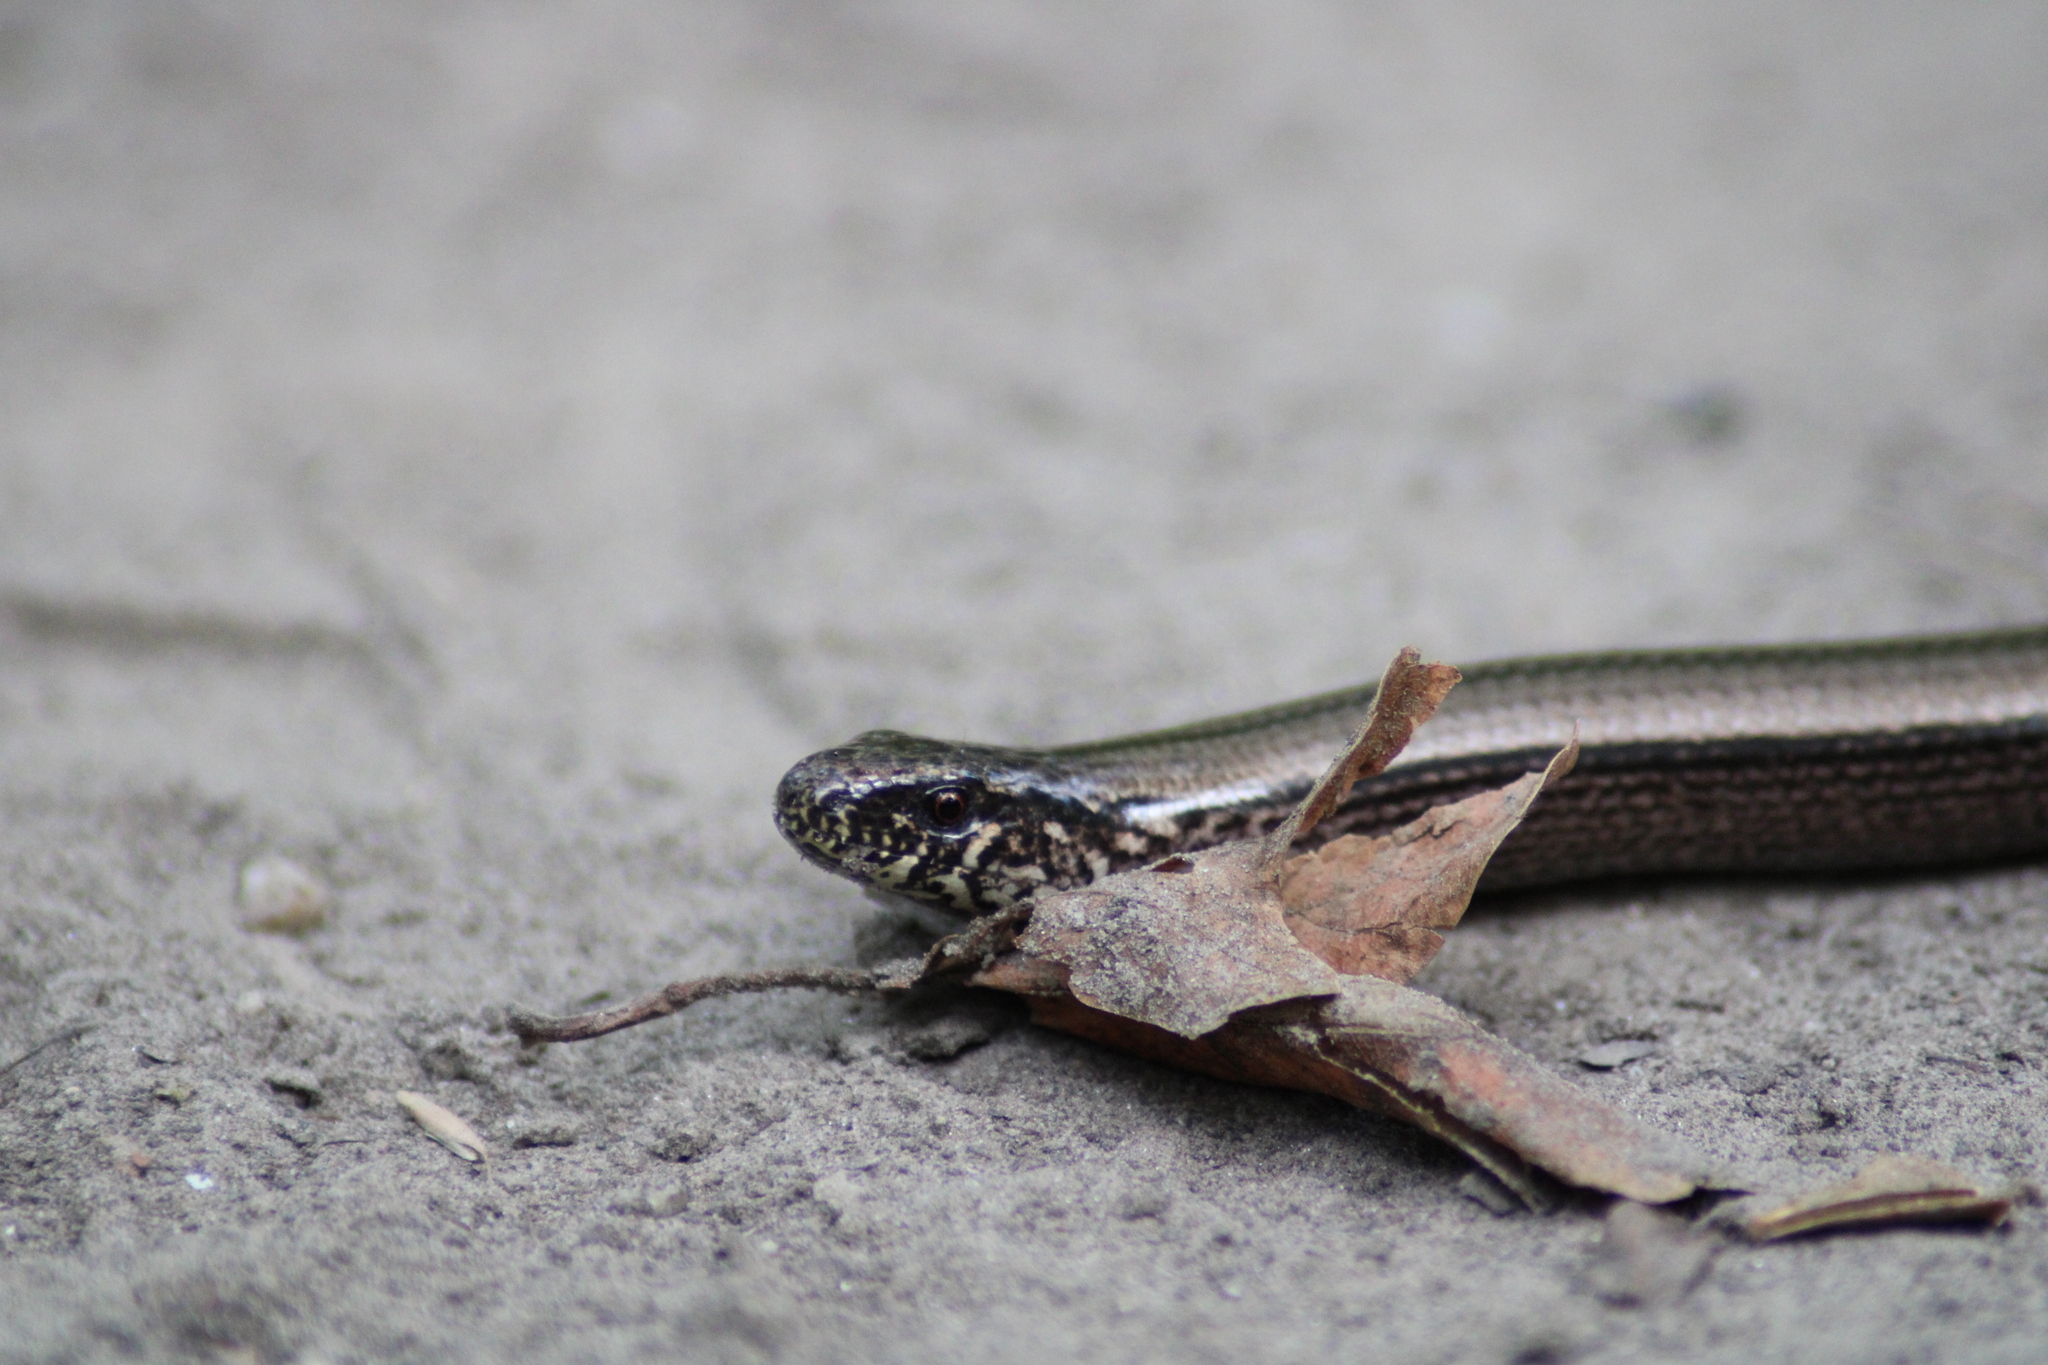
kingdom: Animalia
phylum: Chordata
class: Squamata
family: Anguidae
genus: Anguis
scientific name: Anguis fragilis
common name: Slow worm
